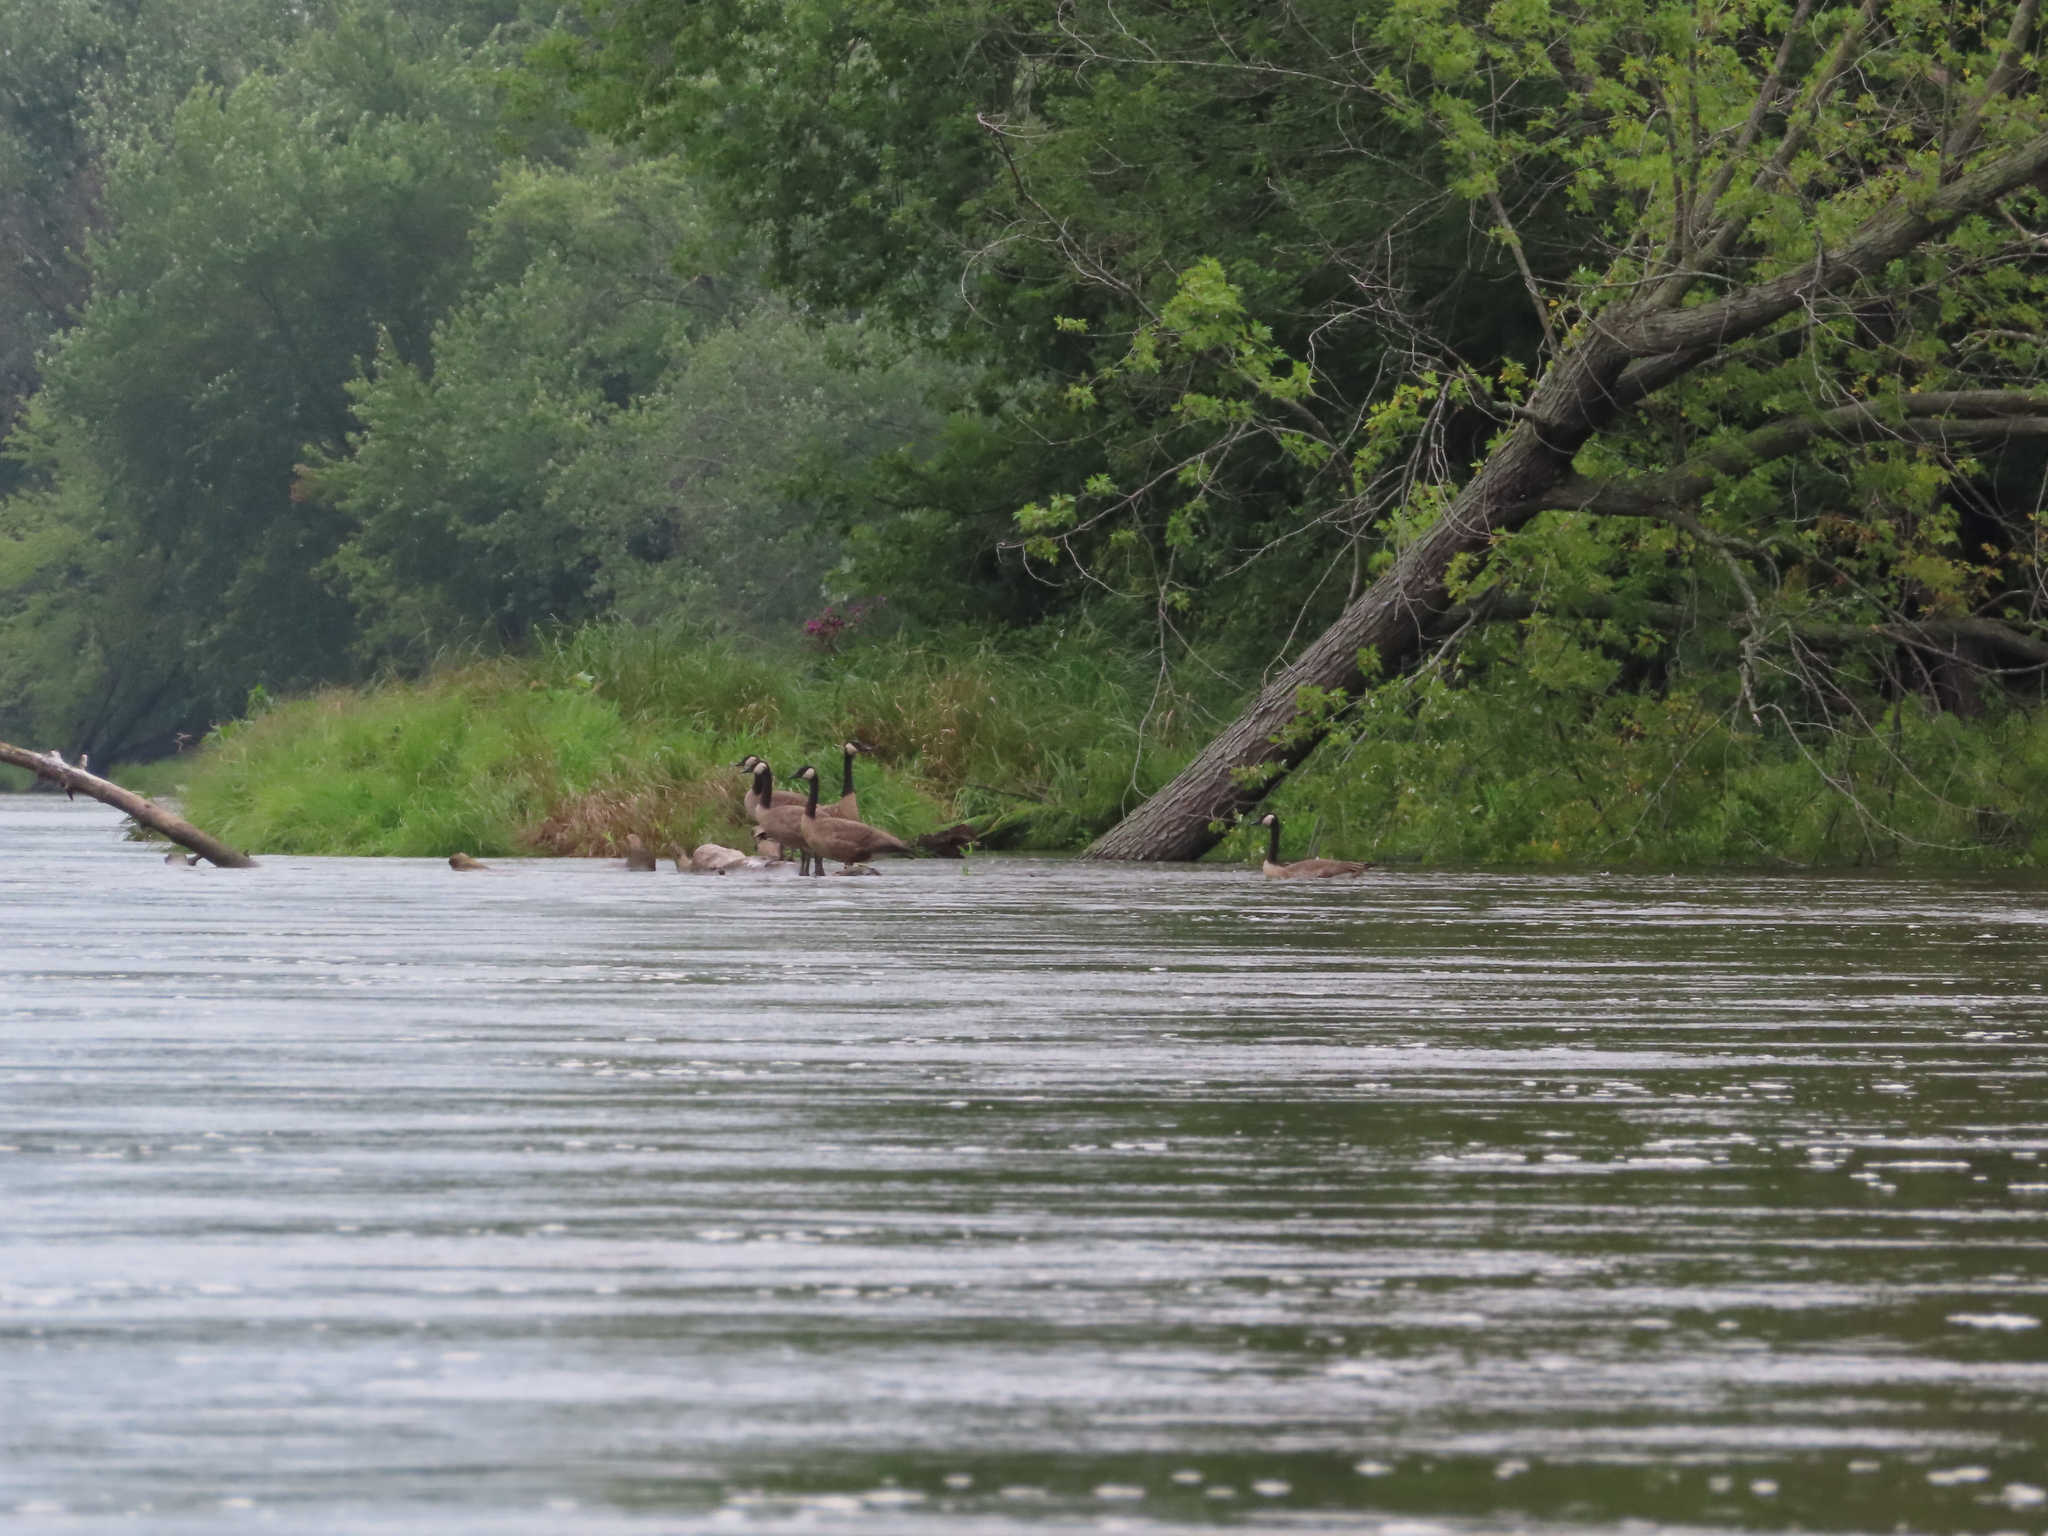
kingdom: Animalia
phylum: Chordata
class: Aves
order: Anseriformes
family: Anatidae
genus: Branta
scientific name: Branta canadensis
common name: Canada goose
